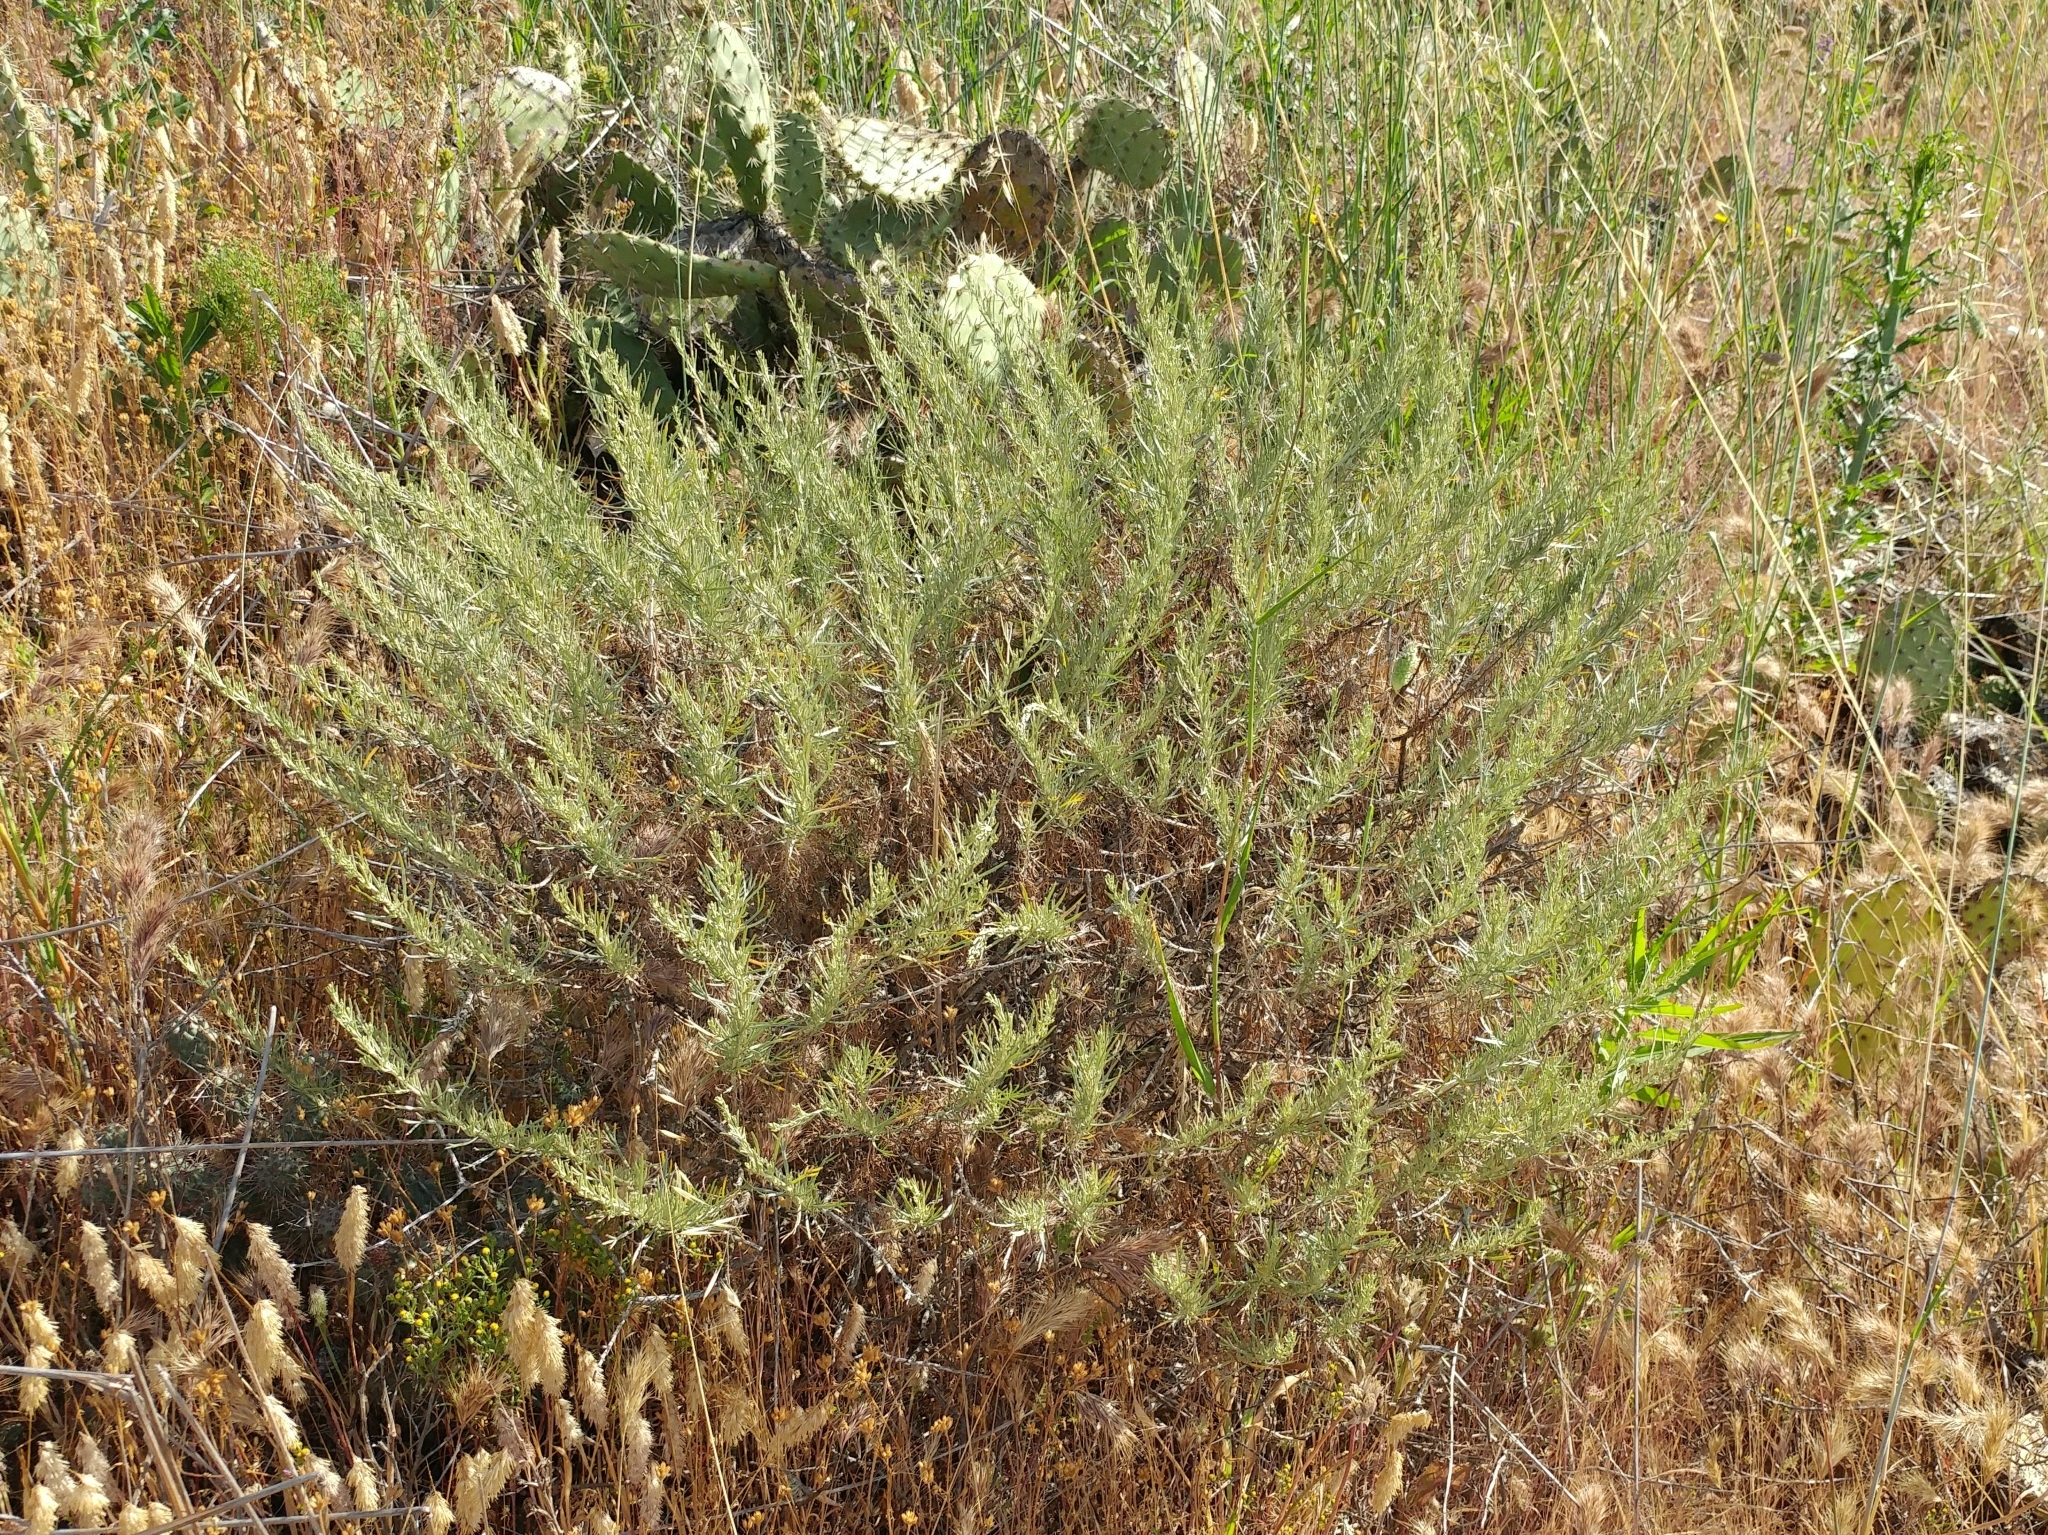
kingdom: Plantae
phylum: Tracheophyta
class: Magnoliopsida
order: Asterales
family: Asteraceae
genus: Artemisia
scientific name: Artemisia californica
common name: California sagebrush
